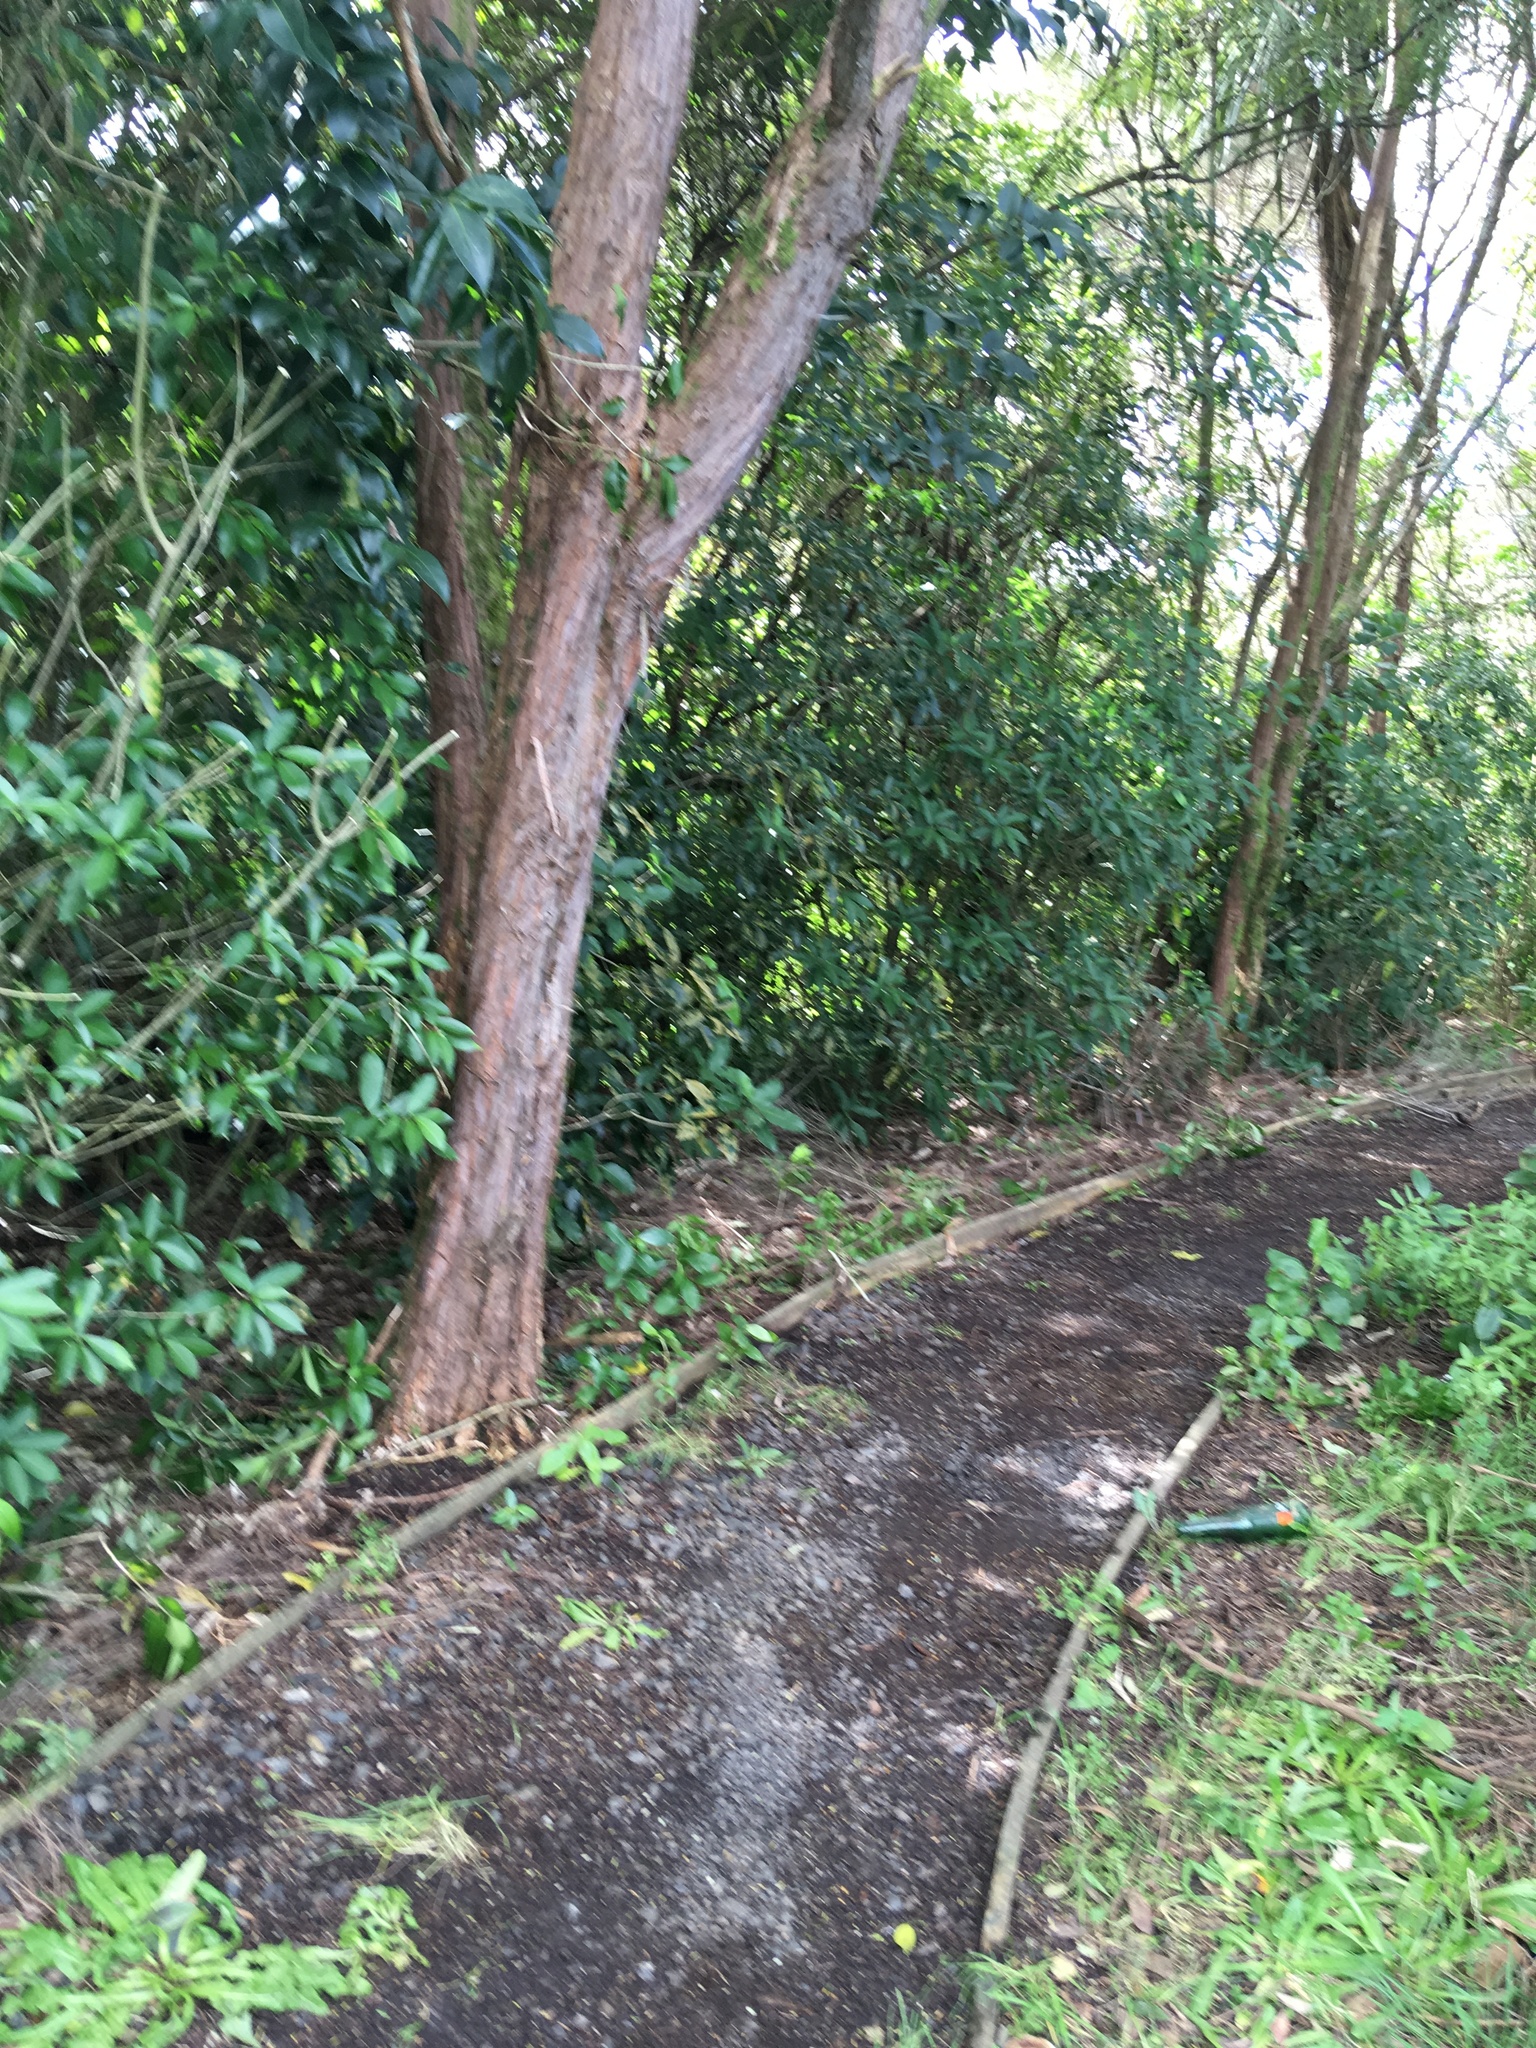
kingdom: Plantae
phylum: Tracheophyta
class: Magnoliopsida
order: Lamiales
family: Oleaceae
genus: Ligustrum
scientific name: Ligustrum lucidum
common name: Glossy privet
